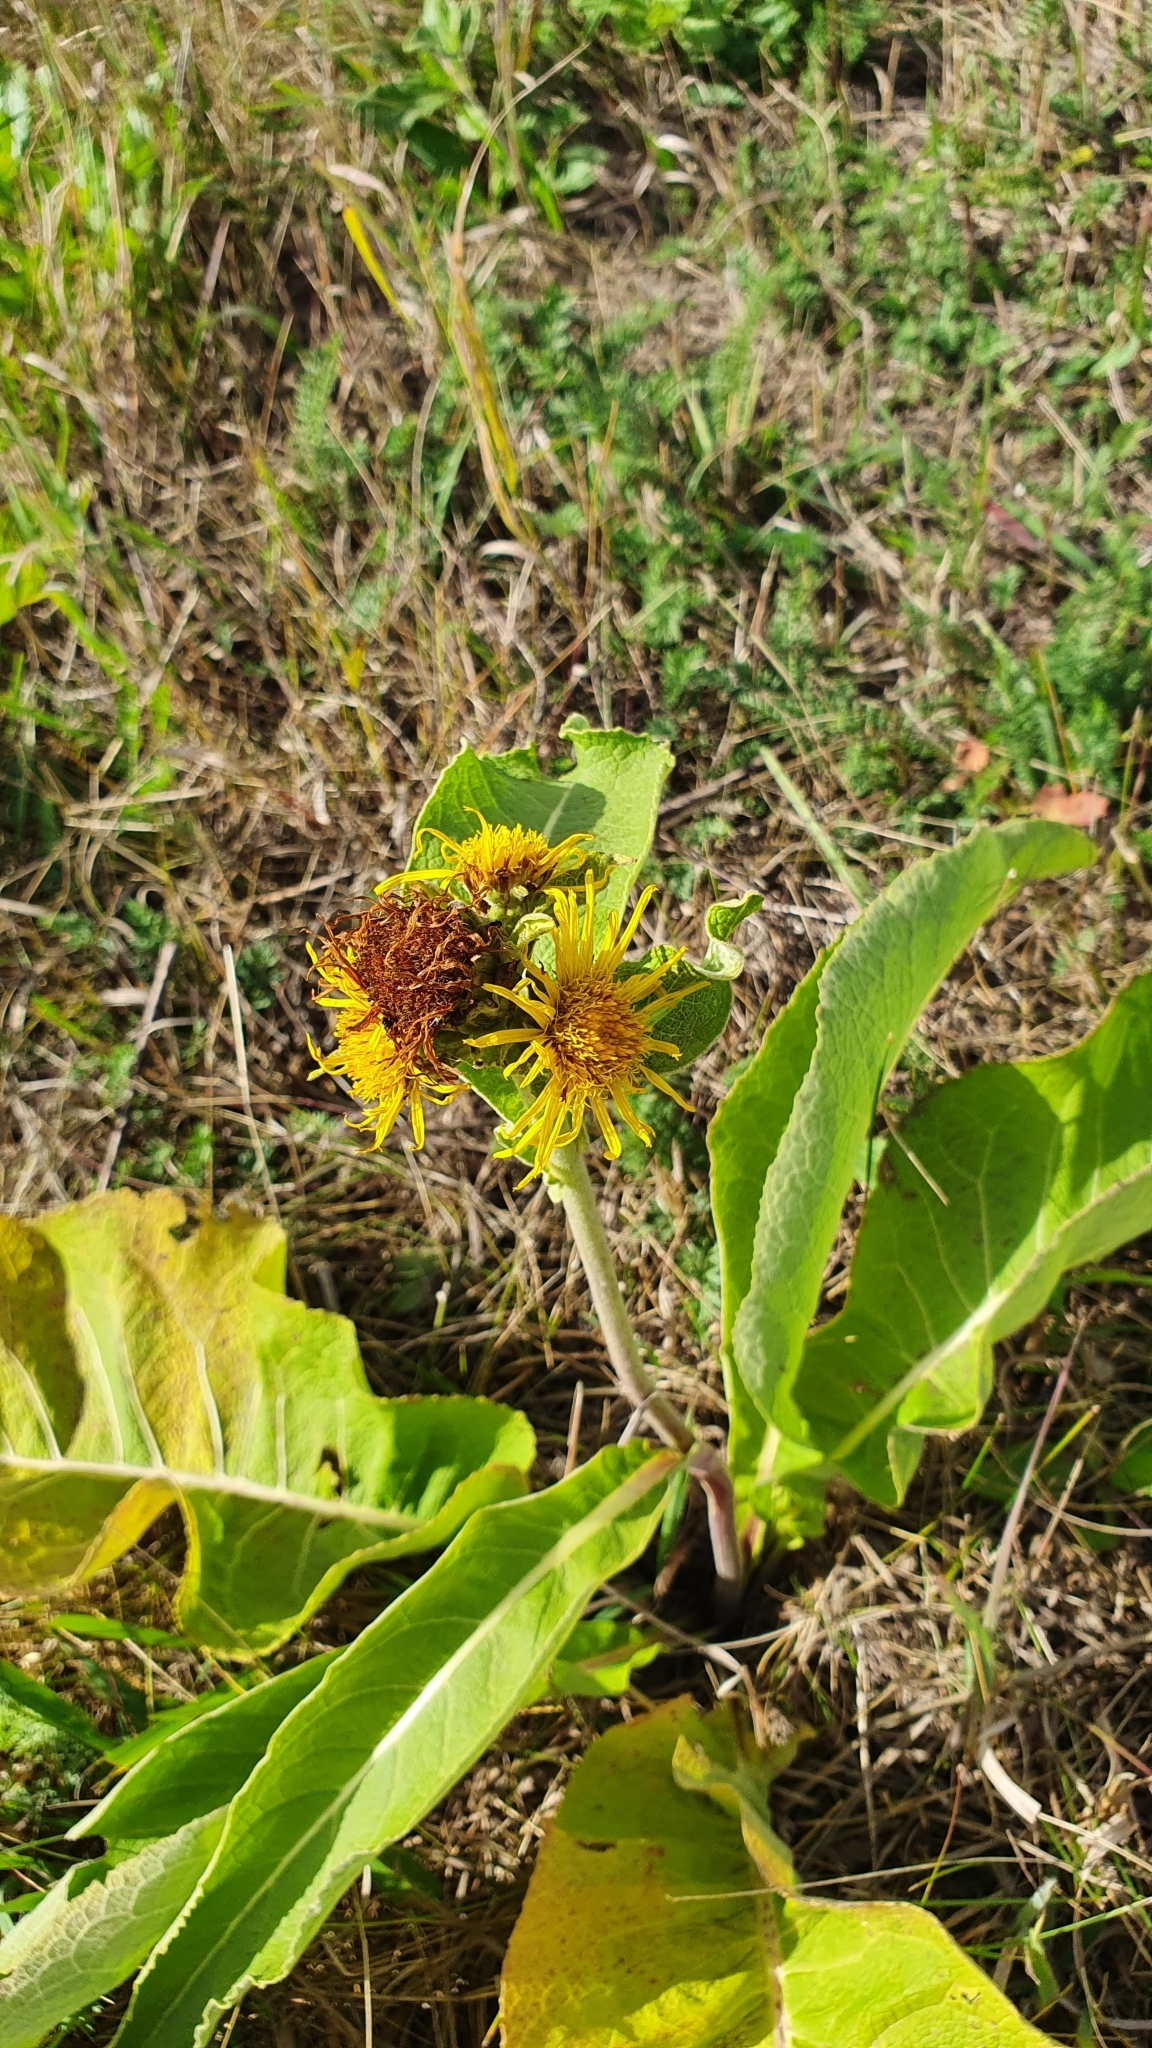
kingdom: Plantae
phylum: Tracheophyta
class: Magnoliopsida
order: Asterales
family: Asteraceae
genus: Inula
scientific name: Inula helenium
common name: Elecampane
